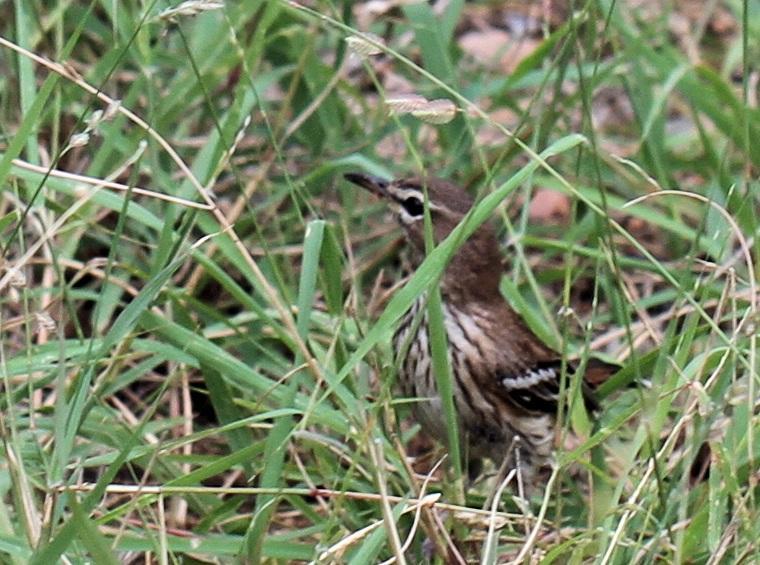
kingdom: Animalia
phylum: Chordata
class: Aves
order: Passeriformes
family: Muscicapidae
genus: Erythropygia
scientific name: Erythropygia leucophrys
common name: White-browed scrub robin
